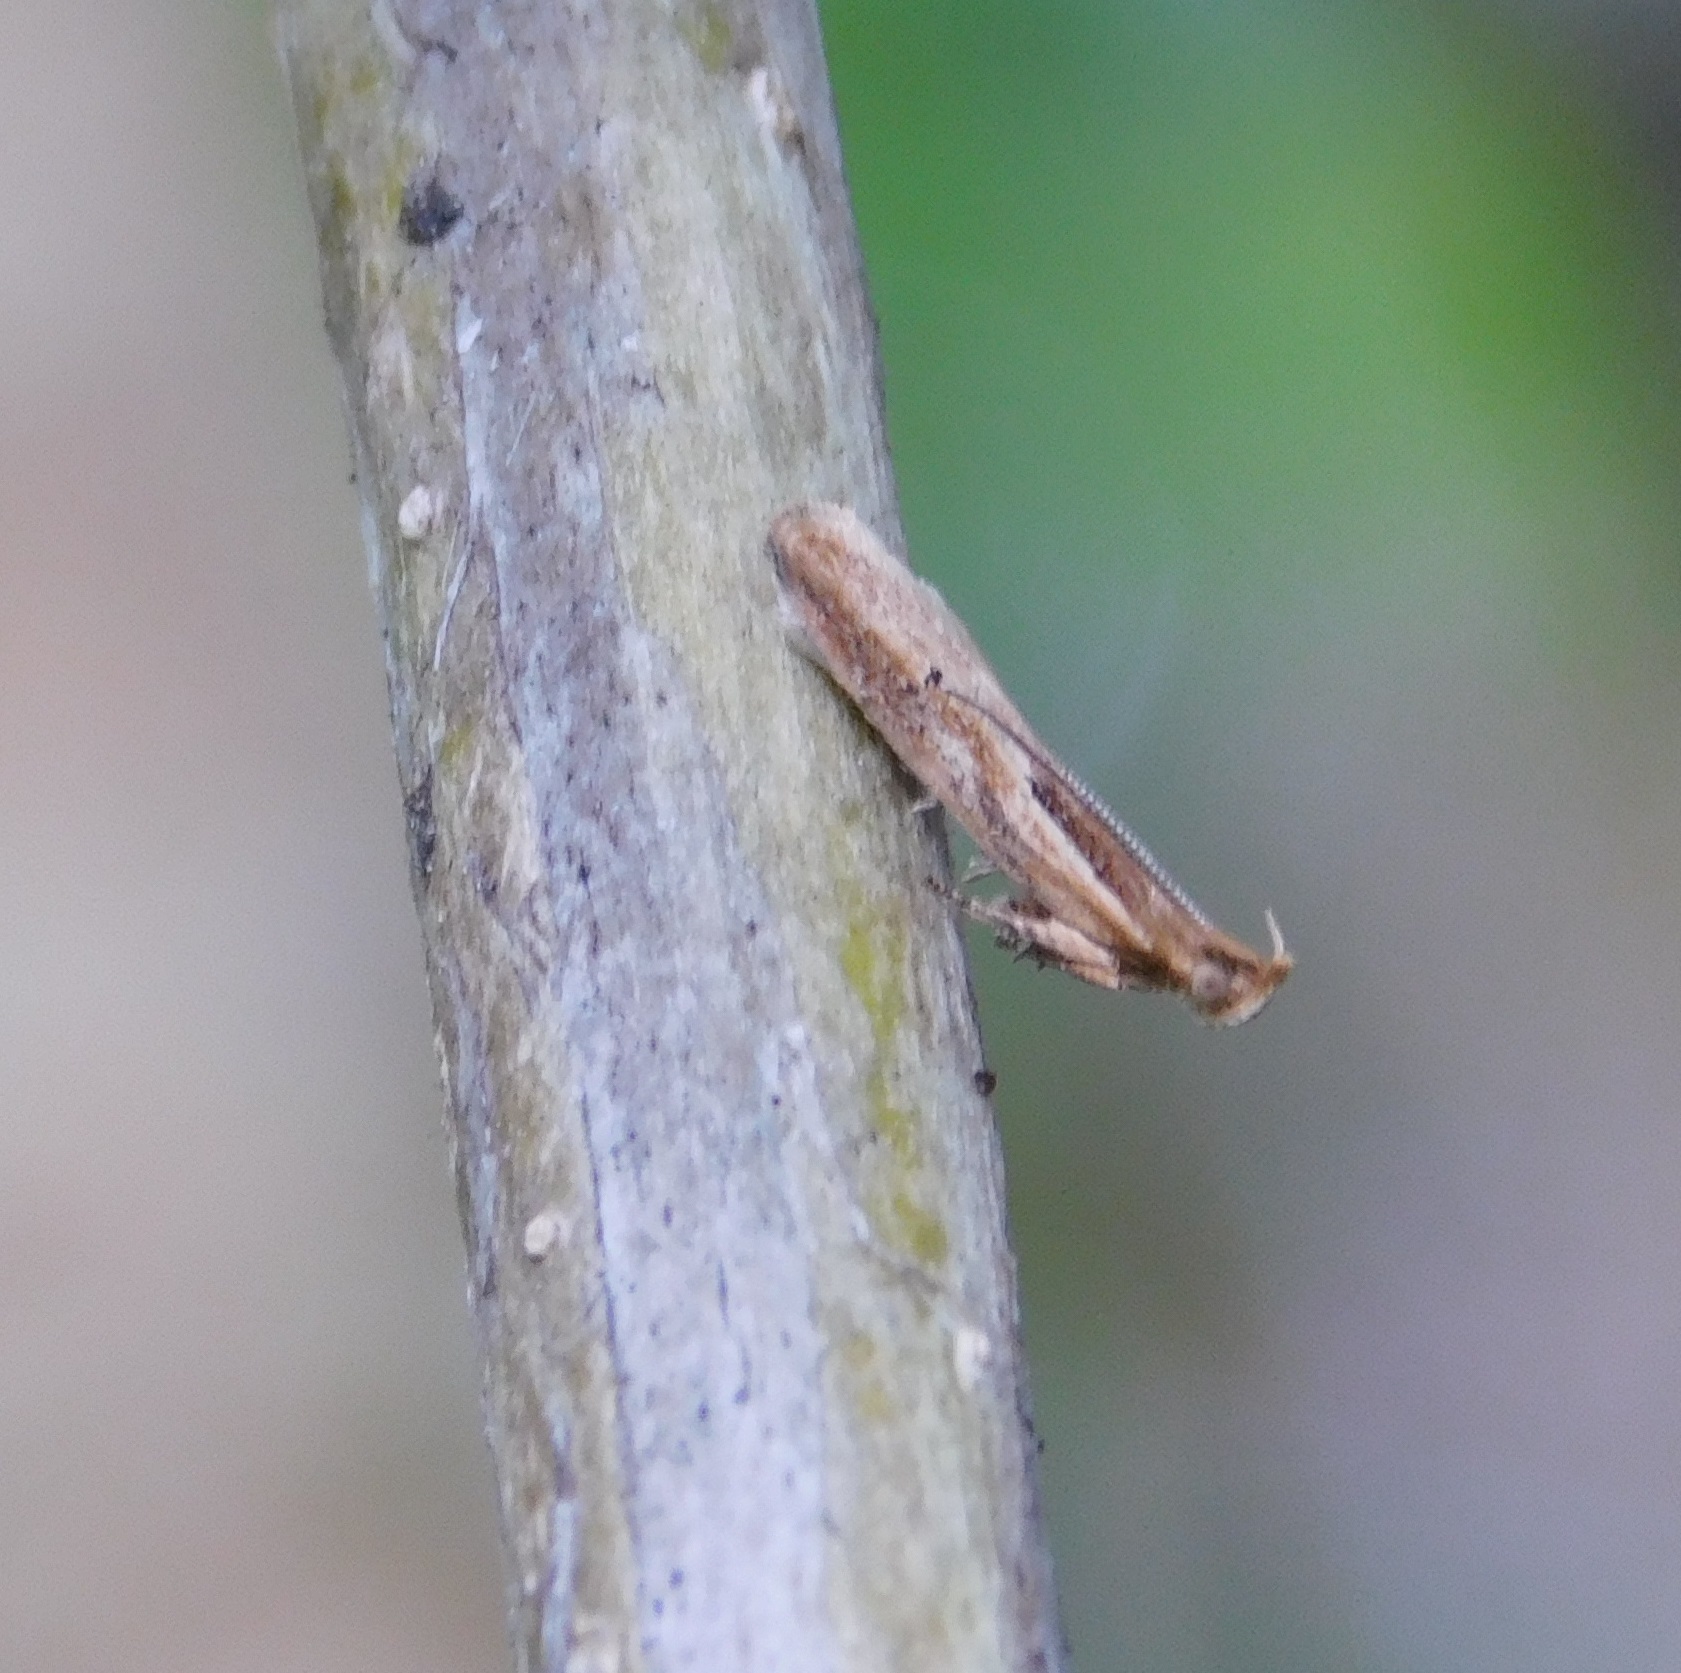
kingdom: Animalia
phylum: Arthropoda
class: Insecta
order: Lepidoptera
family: Depressariidae
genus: Eutorna
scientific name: Eutorna symmorpha
